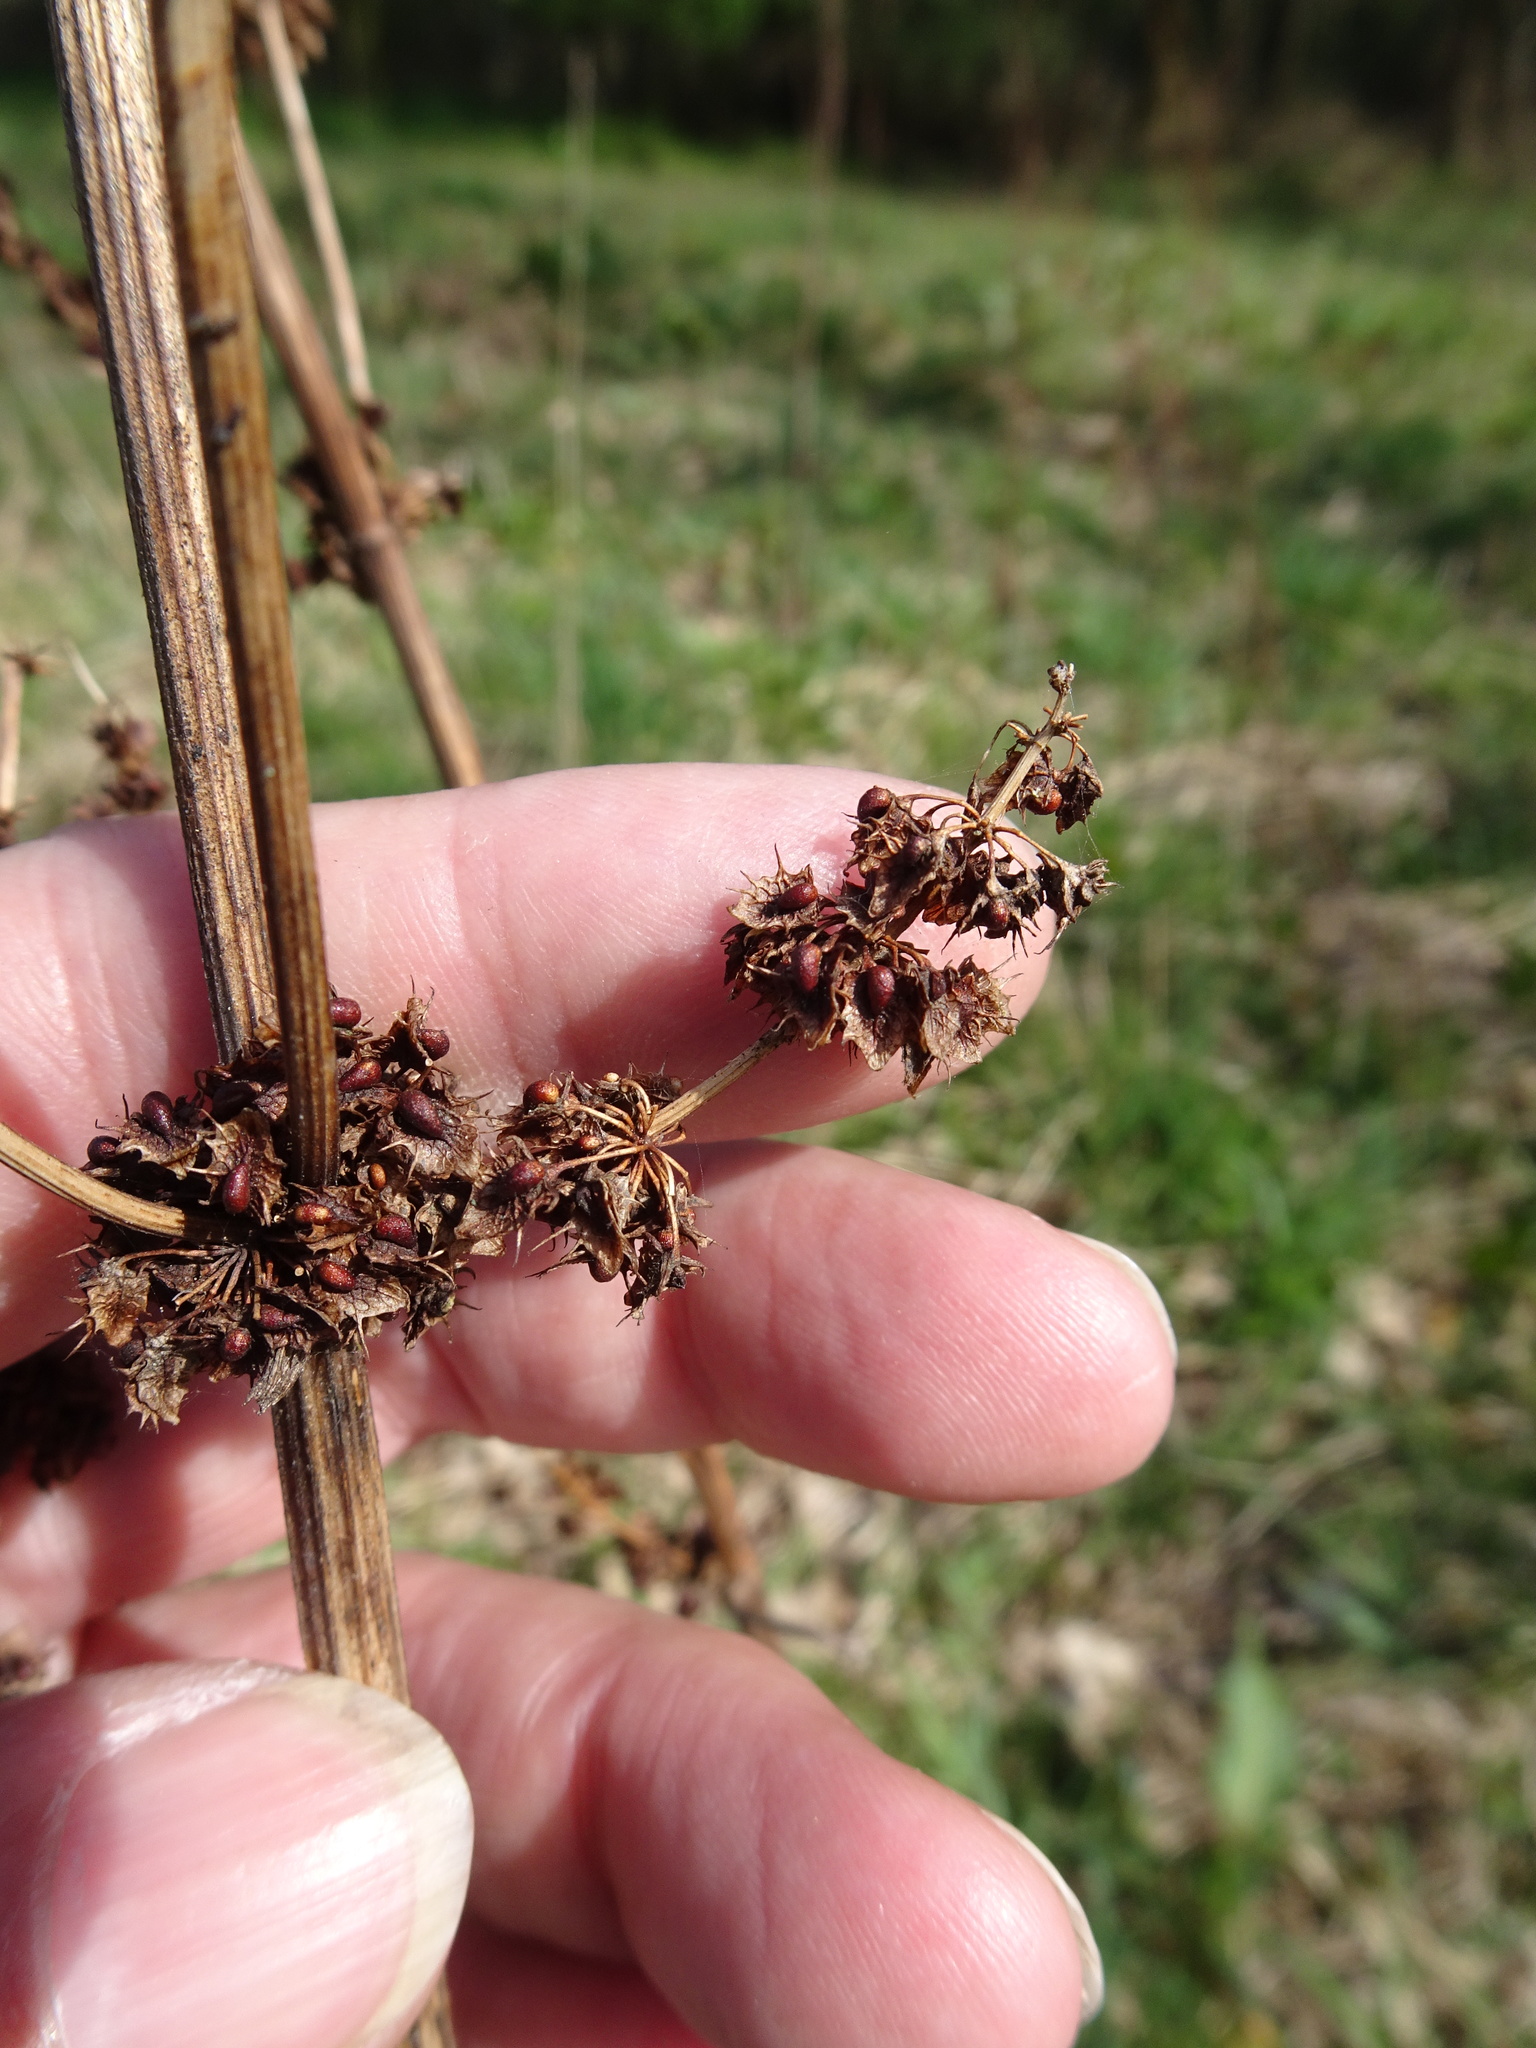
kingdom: Plantae
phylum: Tracheophyta
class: Magnoliopsida
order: Caryophyllales
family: Polygonaceae
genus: Rumex
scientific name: Rumex obtusifolius
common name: Bitter dock
